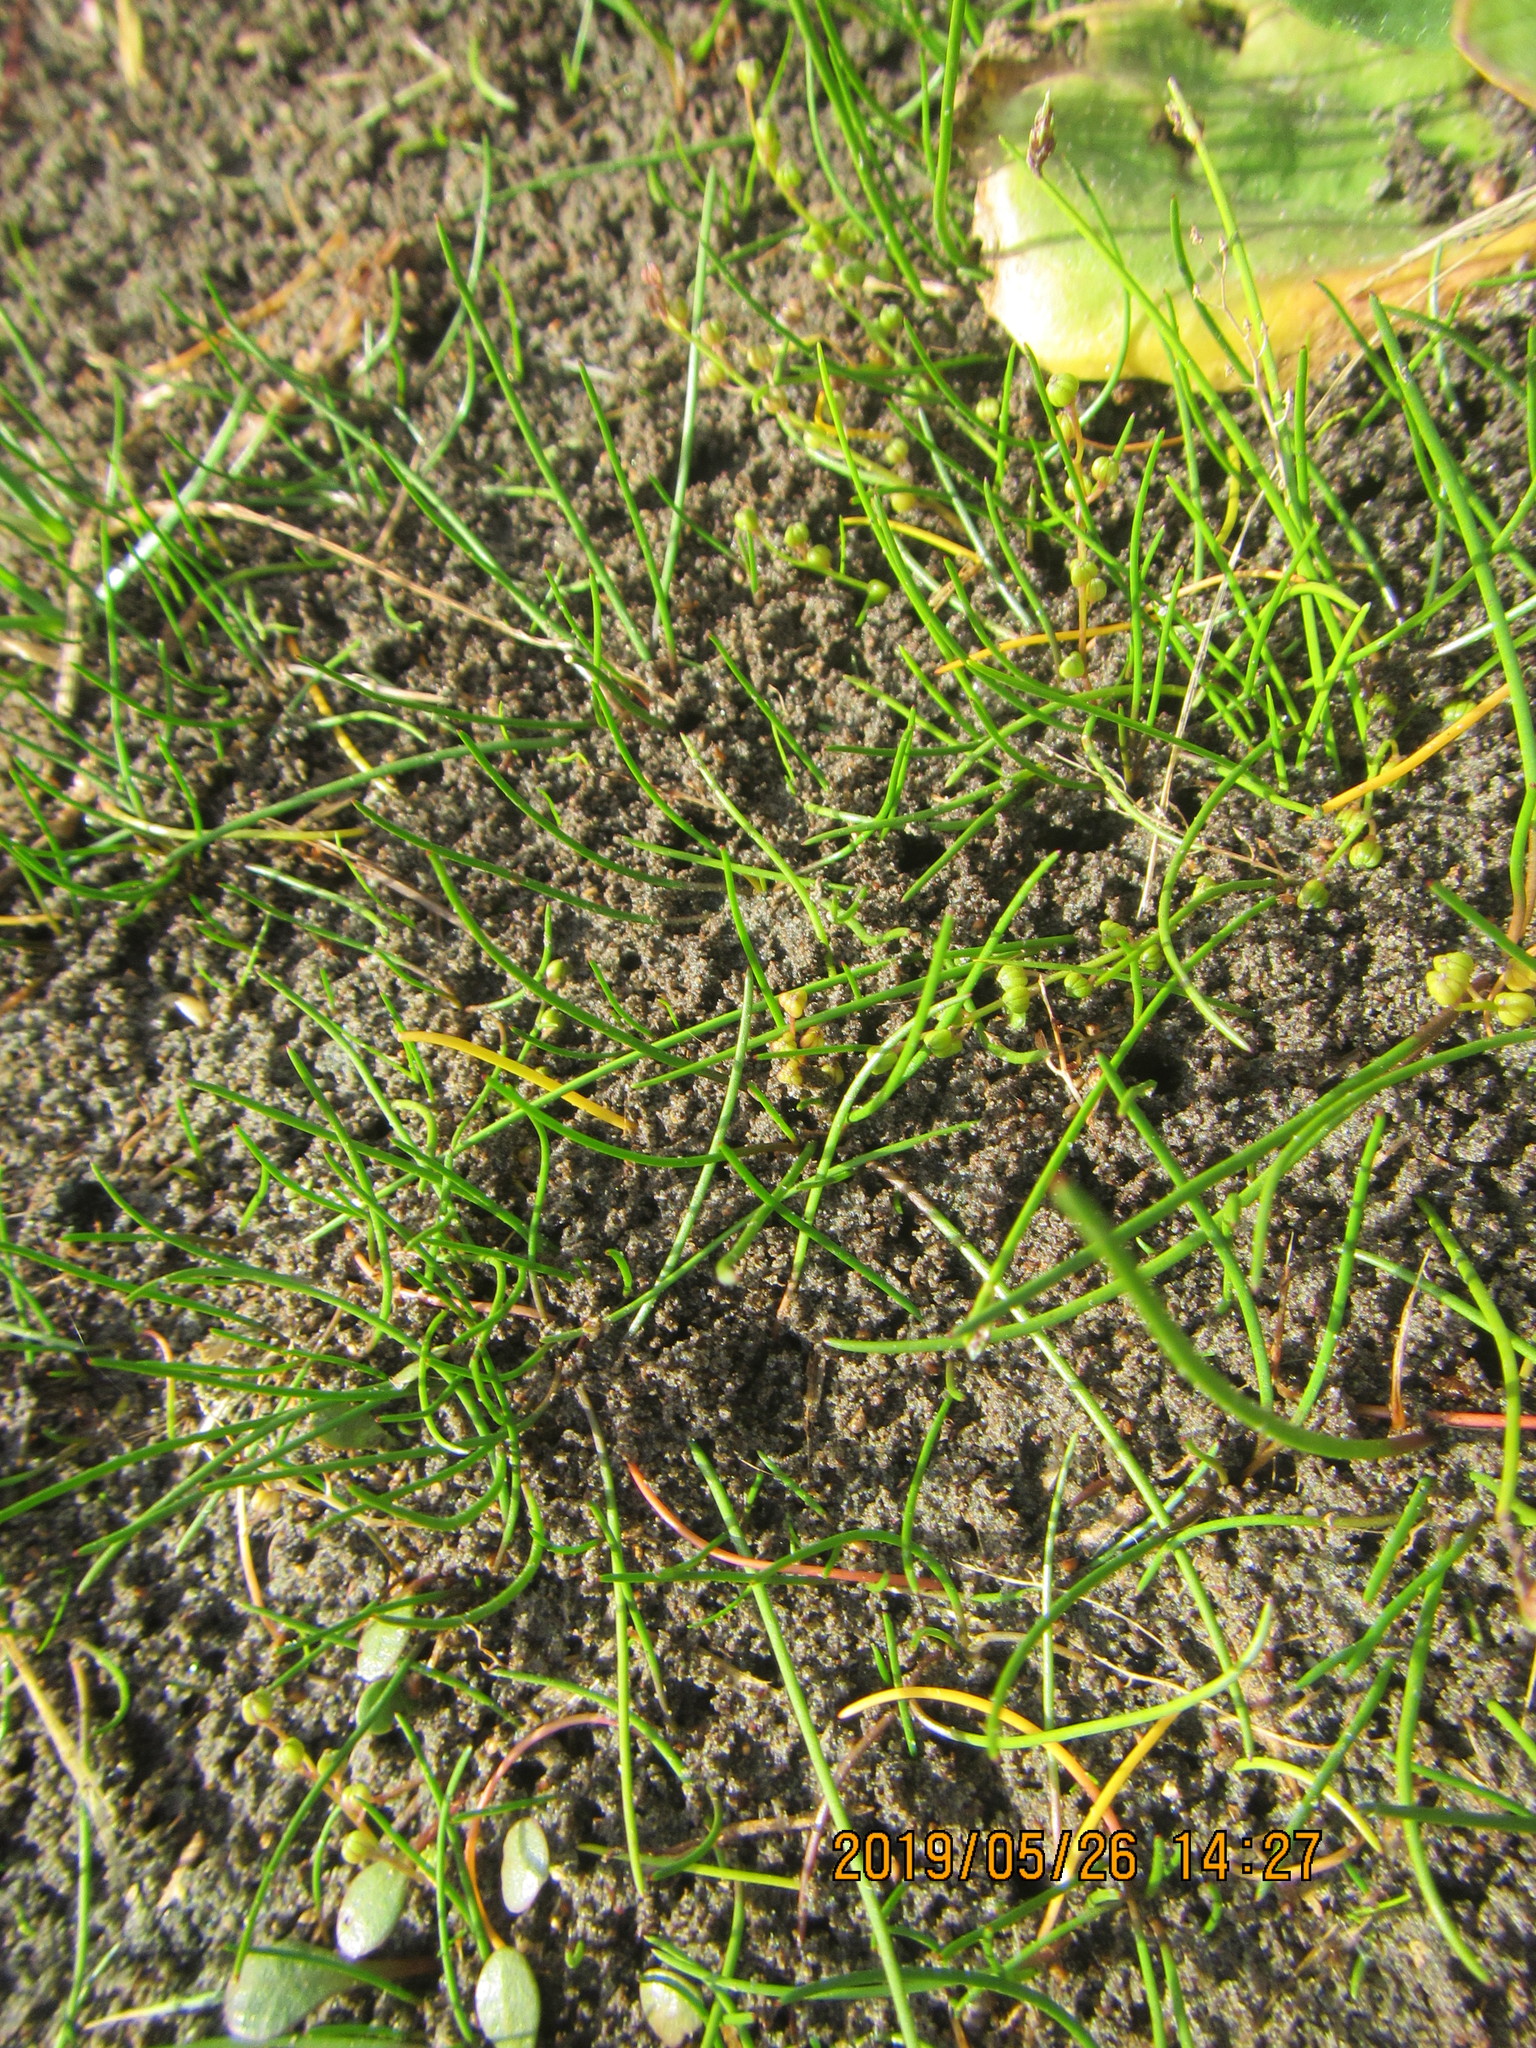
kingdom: Plantae
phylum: Tracheophyta
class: Liliopsida
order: Alismatales
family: Juncaginaceae
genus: Triglochin
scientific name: Triglochin striata
